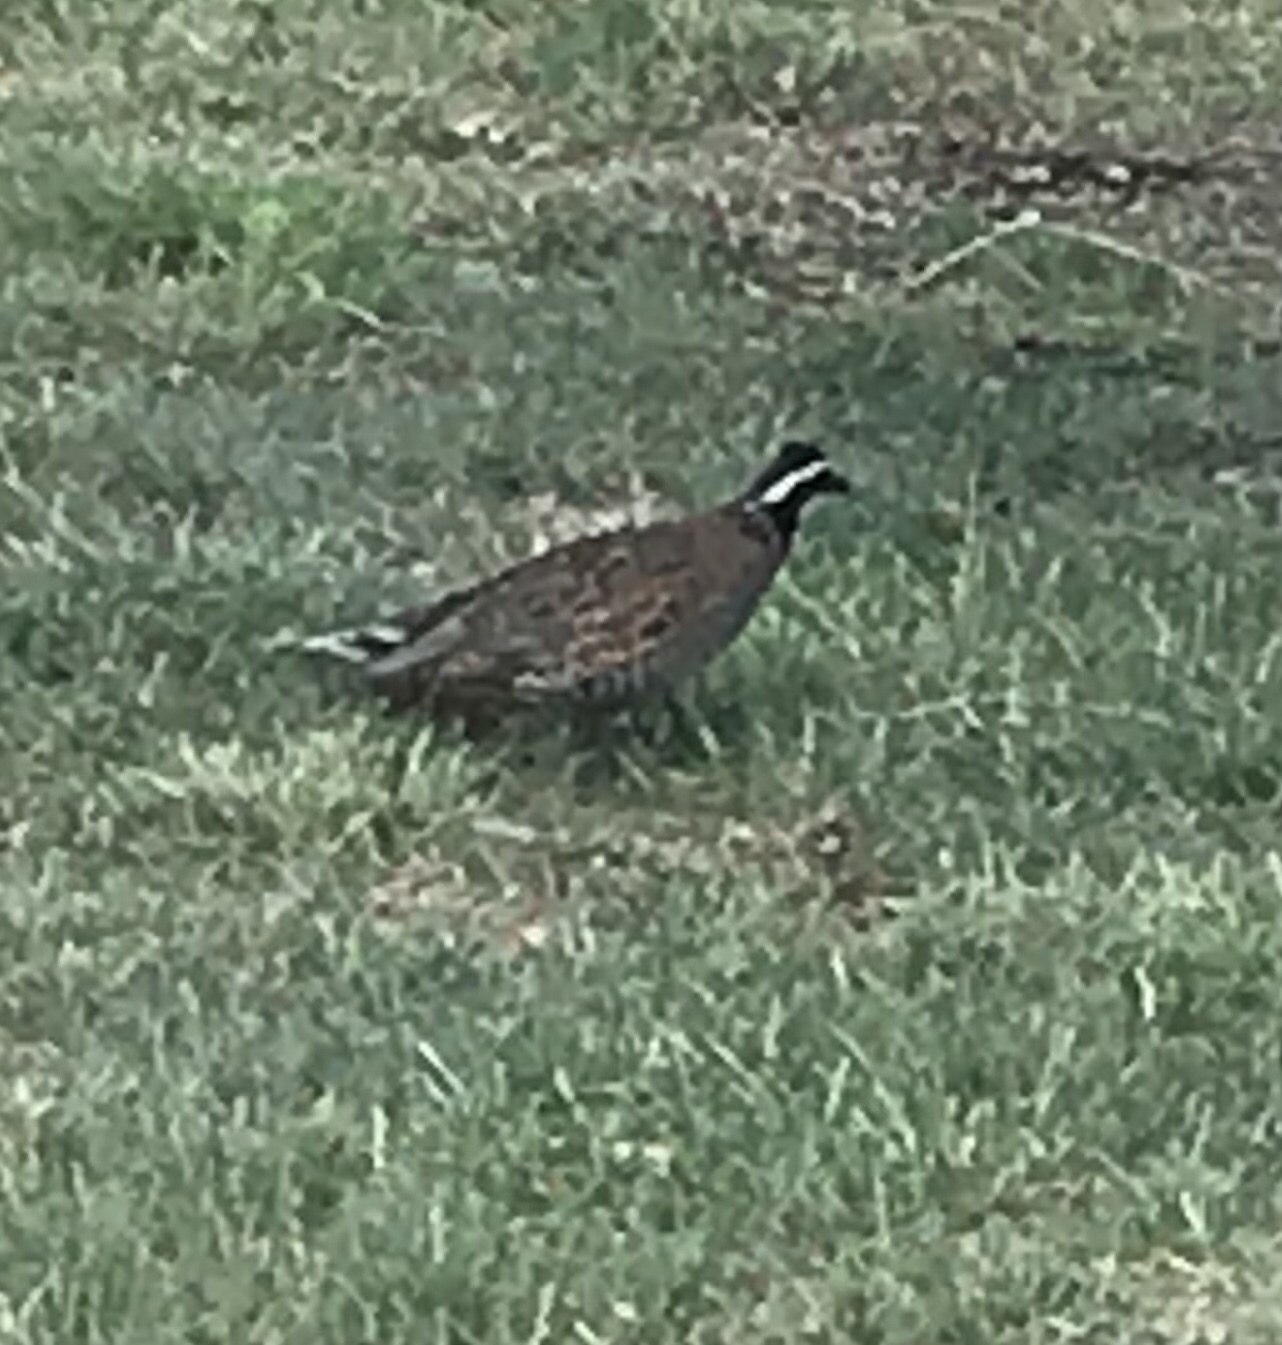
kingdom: Animalia
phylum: Chordata
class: Aves
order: Galliformes
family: Odontophoridae
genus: Colinus
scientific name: Colinus virginianus
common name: Northern bobwhite
